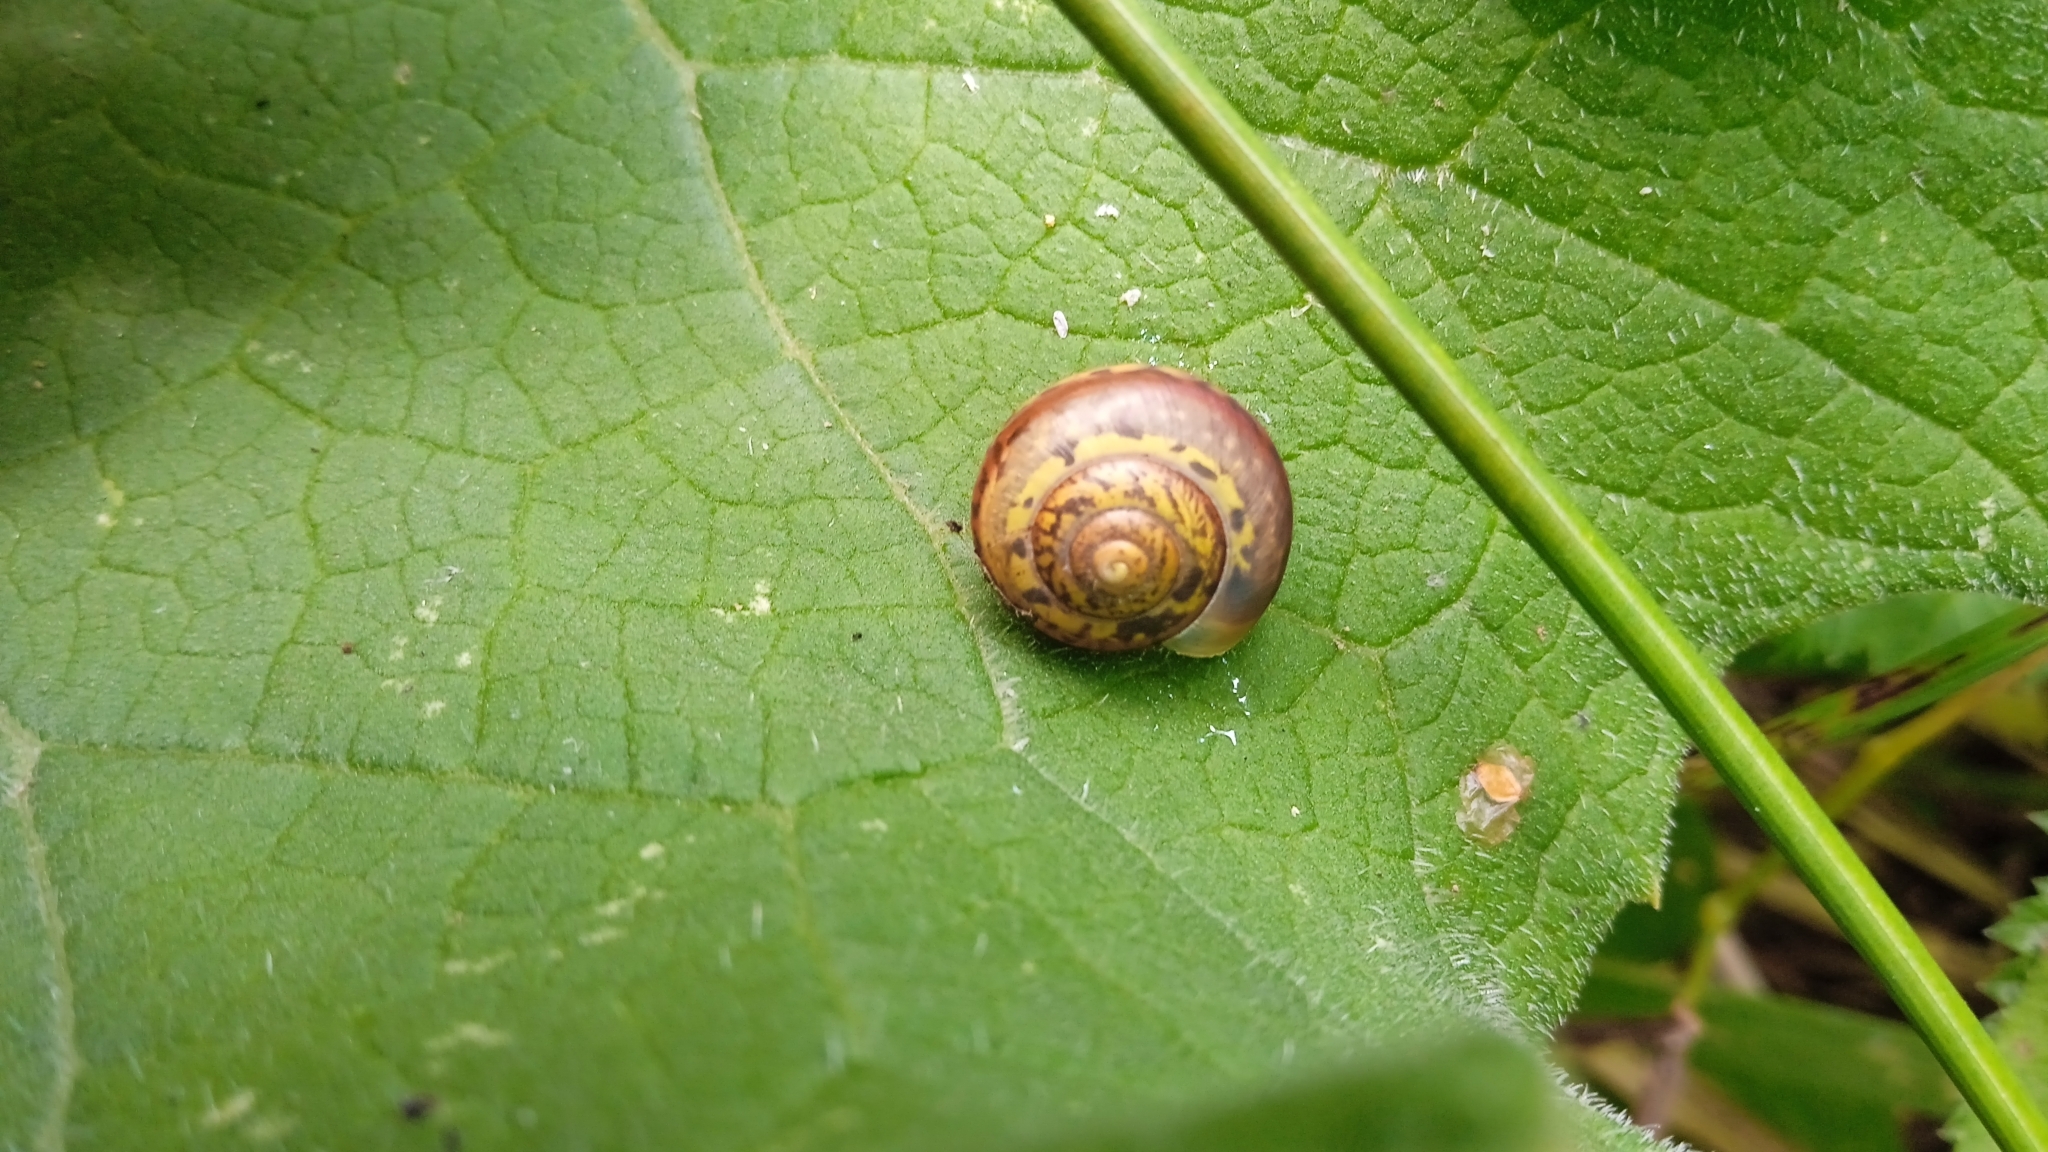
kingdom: Animalia
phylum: Mollusca
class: Gastropoda
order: Stylommatophora
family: Camaenidae
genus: Fruticicola
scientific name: Fruticicola fruticum
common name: Bush snail
